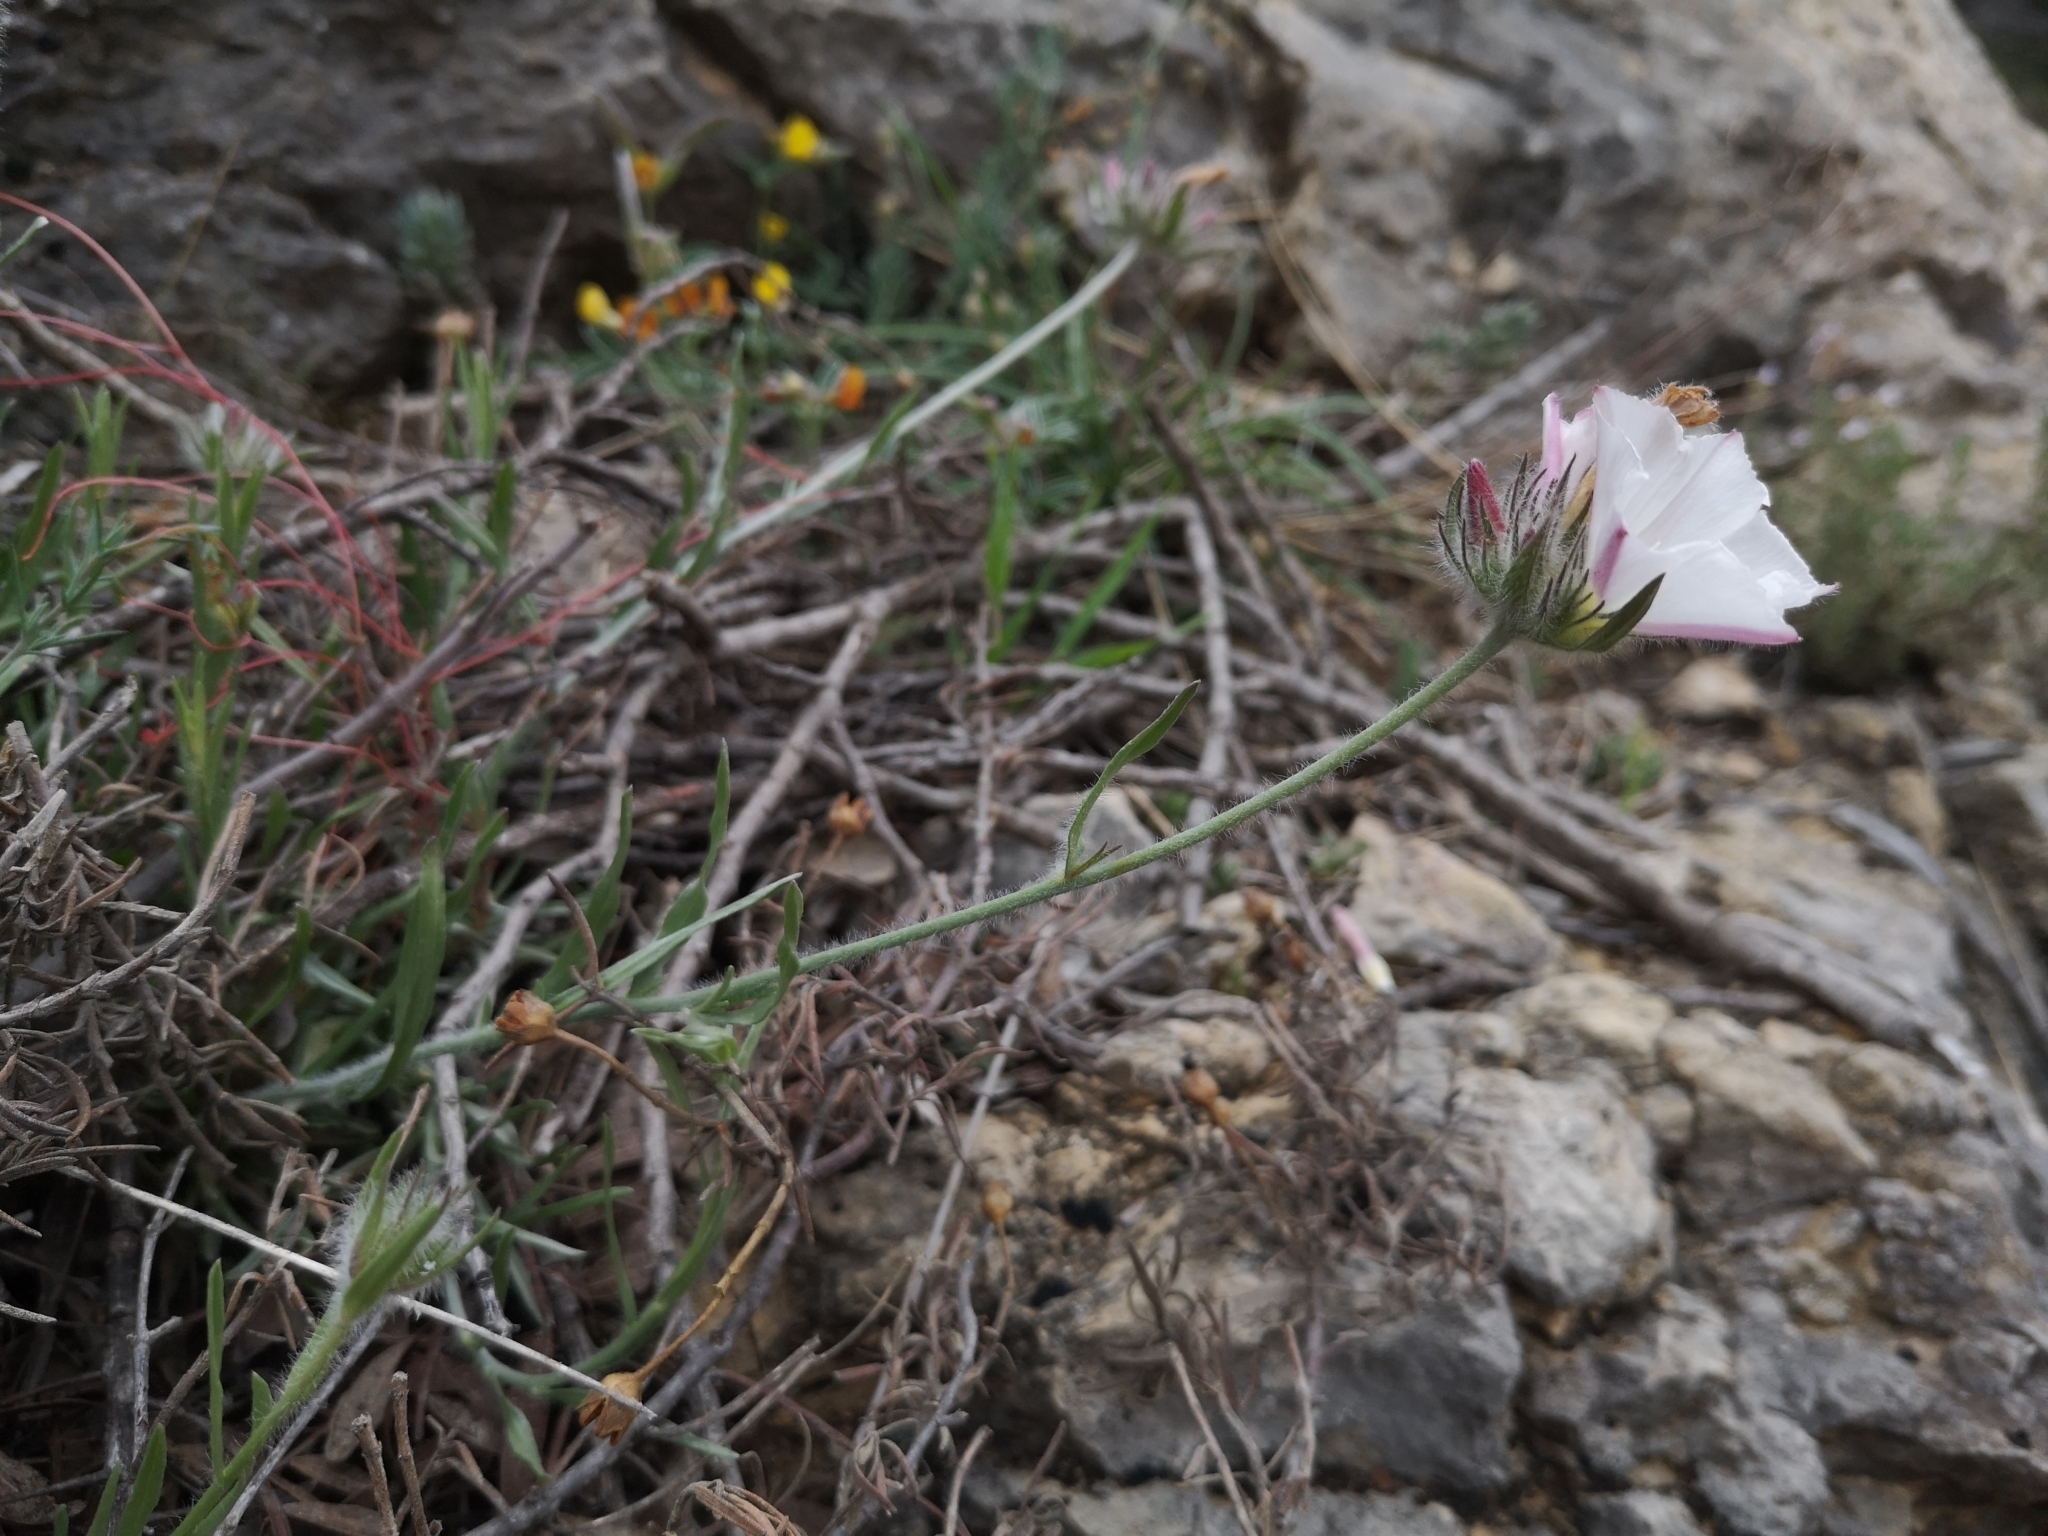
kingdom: Plantae
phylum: Tracheophyta
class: Magnoliopsida
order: Solanales
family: Convolvulaceae
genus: Convolvulus
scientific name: Convolvulus lanuginosus
